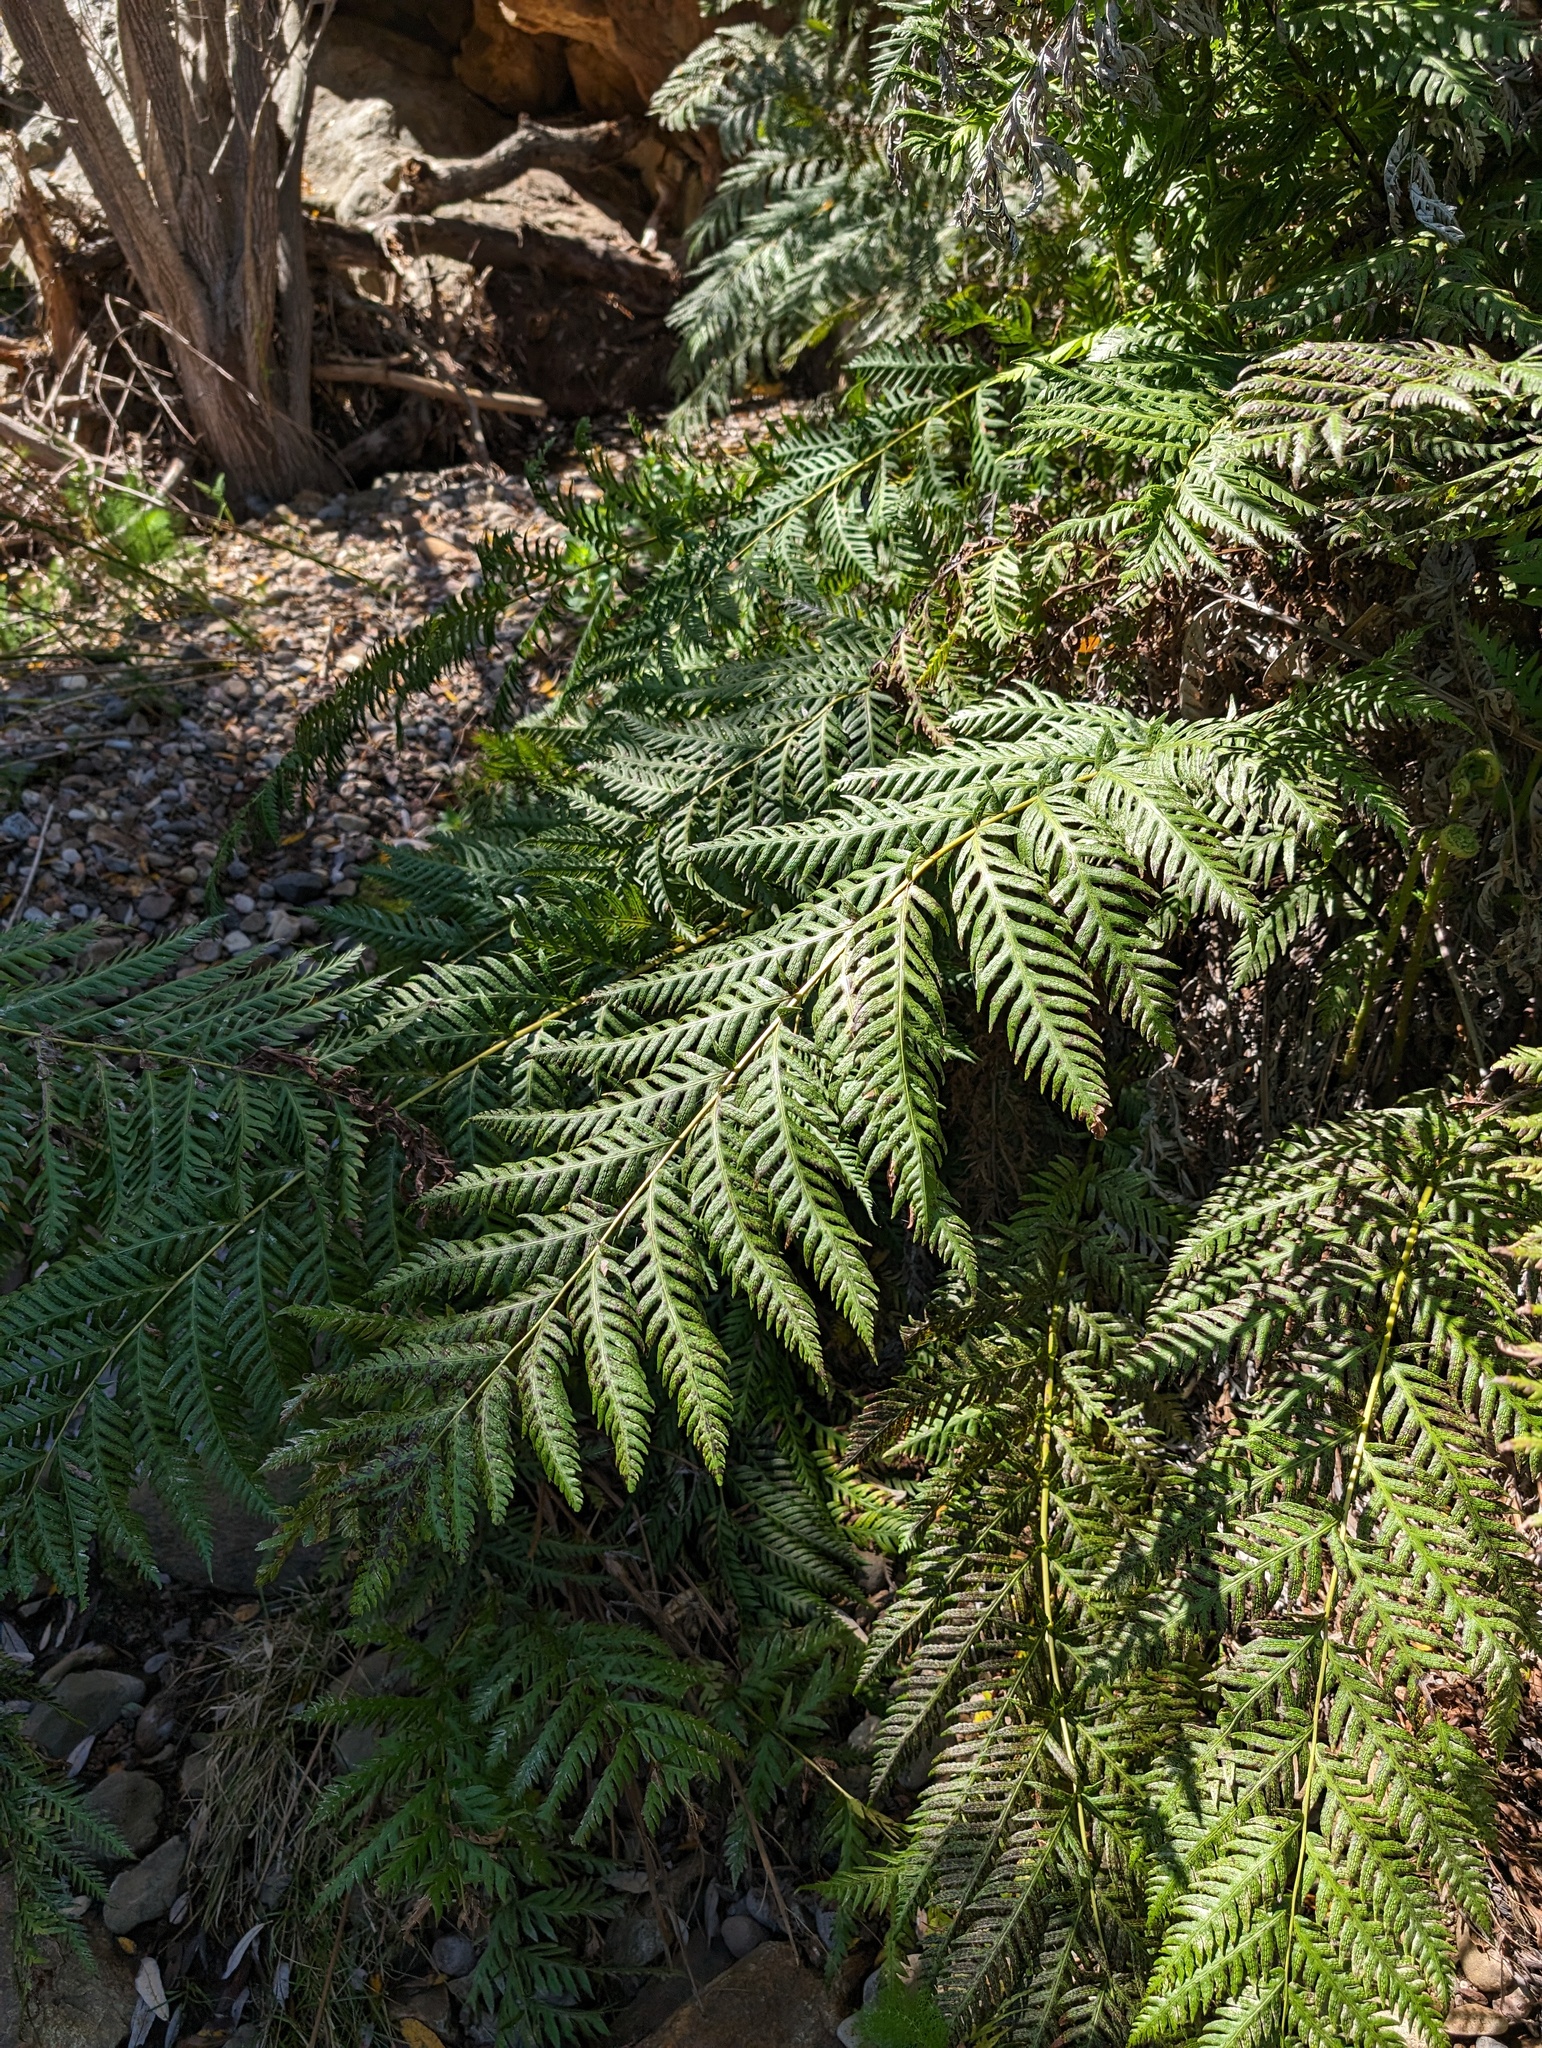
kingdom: Plantae
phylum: Tracheophyta
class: Polypodiopsida
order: Polypodiales
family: Blechnaceae
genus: Woodwardia
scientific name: Woodwardia fimbriata
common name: Giant chain fern
